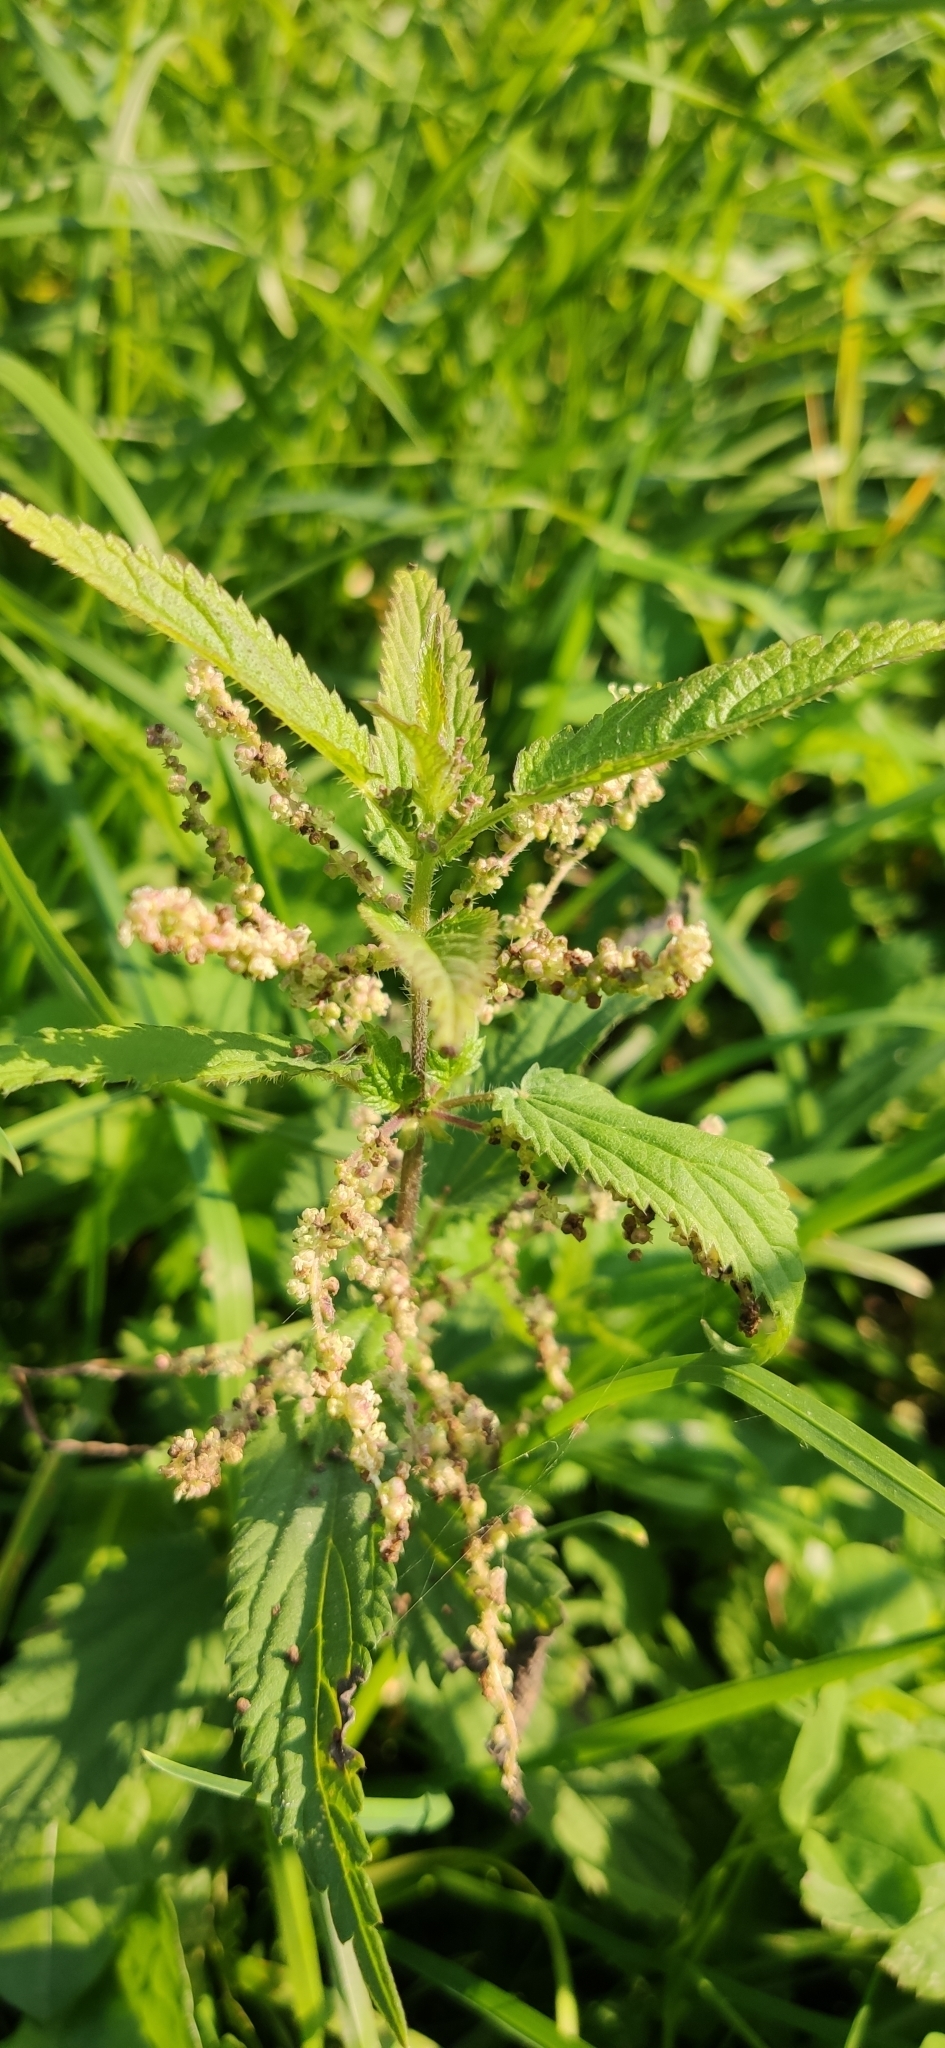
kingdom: Plantae
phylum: Tracheophyta
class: Magnoliopsida
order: Rosales
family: Urticaceae
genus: Urtica
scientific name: Urtica dioica
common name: Common nettle
